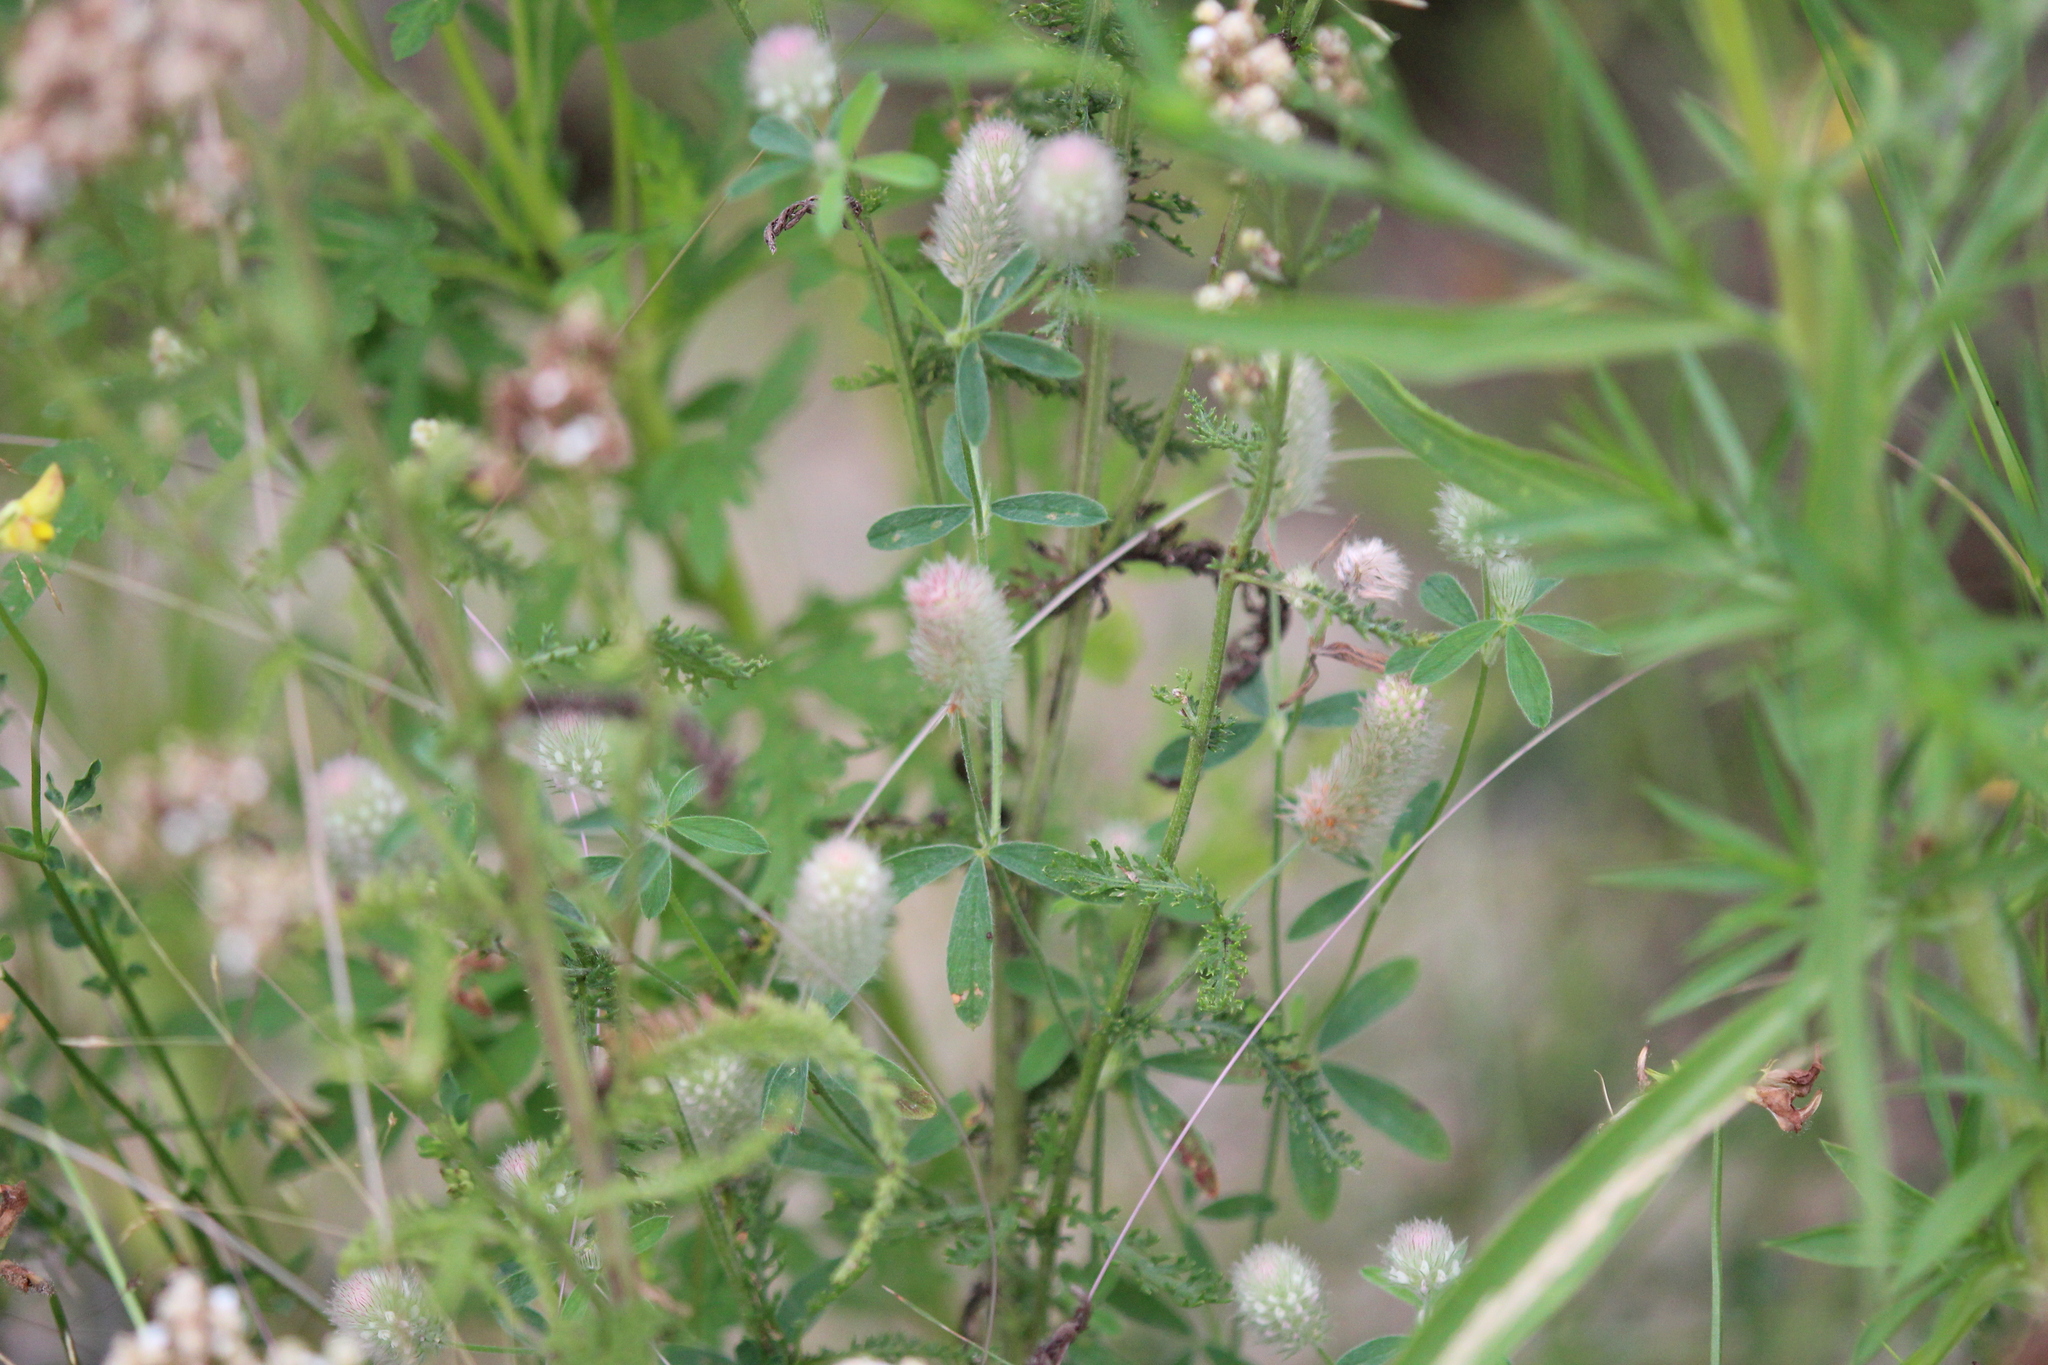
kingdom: Plantae
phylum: Tracheophyta
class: Magnoliopsida
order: Fabales
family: Fabaceae
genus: Trifolium
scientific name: Trifolium arvense
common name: Hare's-foot clover
